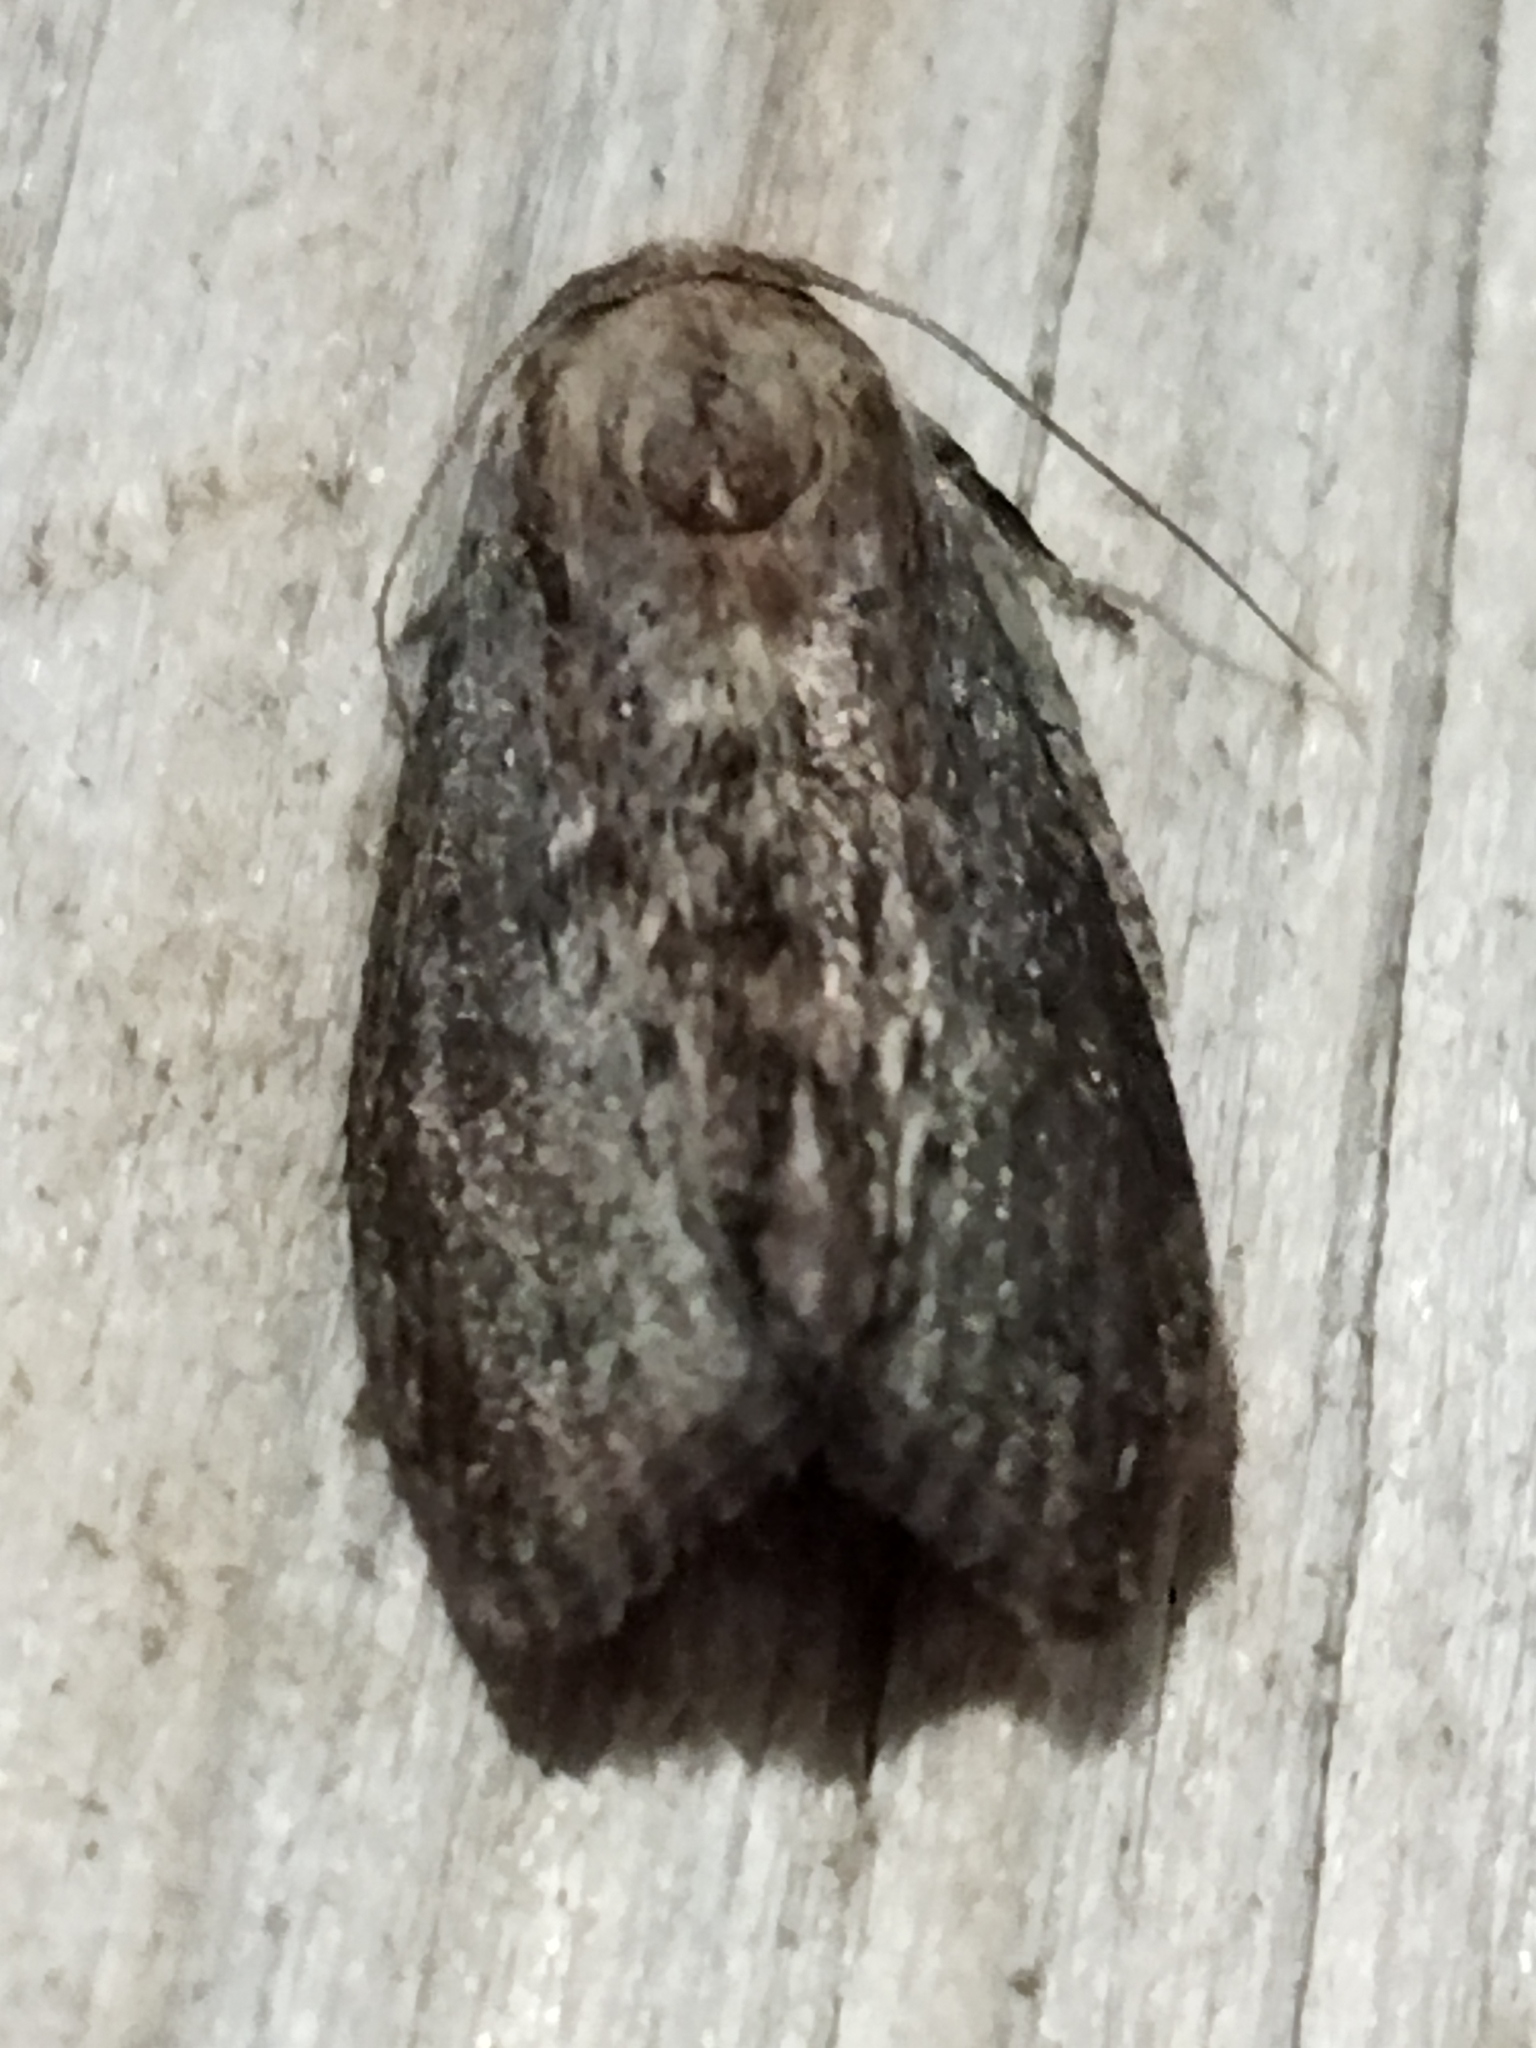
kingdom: Animalia
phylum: Arthropoda
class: Insecta
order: Lepidoptera
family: Pyralidae
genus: Galleria
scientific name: Galleria mellonella
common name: Greater wax moth
